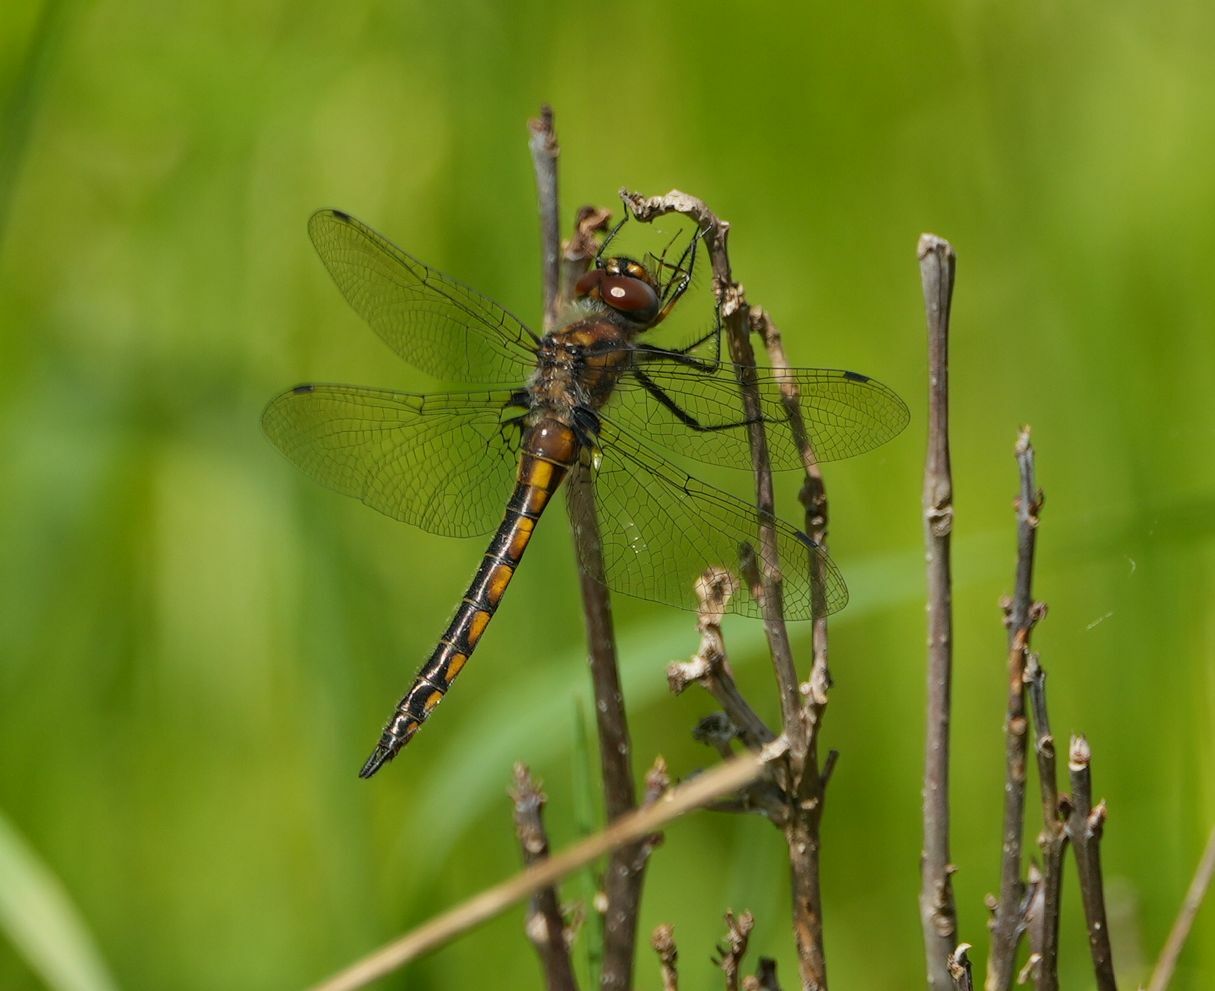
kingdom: Animalia
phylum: Arthropoda
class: Insecta
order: Odonata
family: Corduliidae
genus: Epitheca
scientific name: Epitheca spinigera
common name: Spiny baskettail
